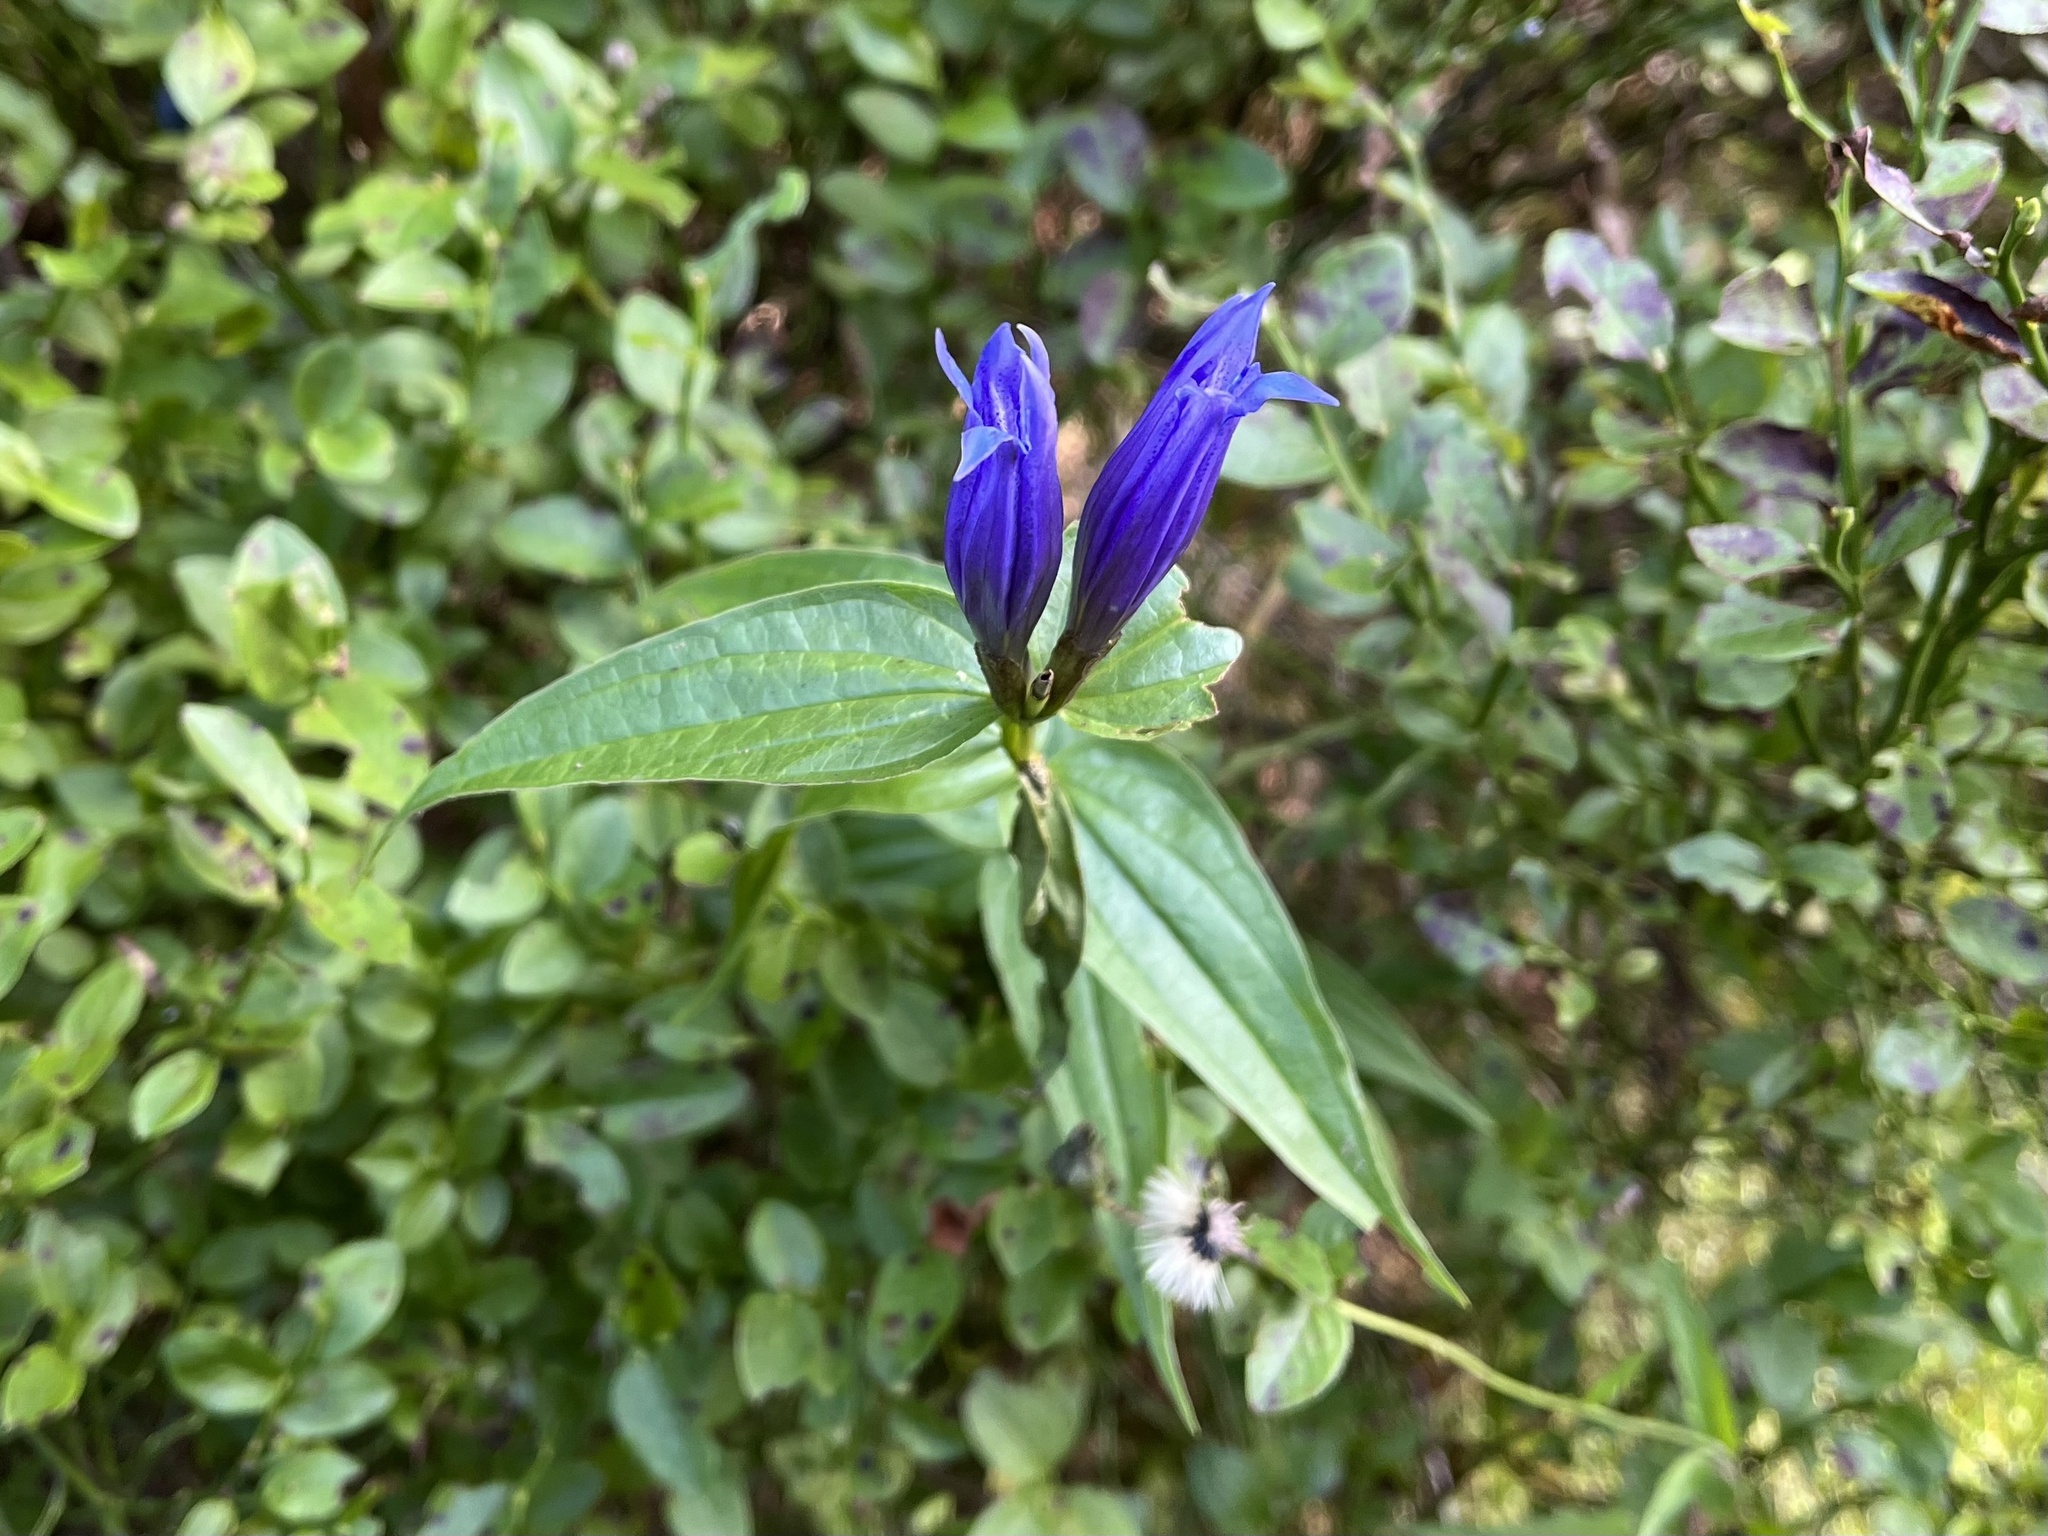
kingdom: Plantae
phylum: Tracheophyta
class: Magnoliopsida
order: Gentianales
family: Gentianaceae
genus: Gentiana
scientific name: Gentiana asclepiadea
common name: Willow gentian
